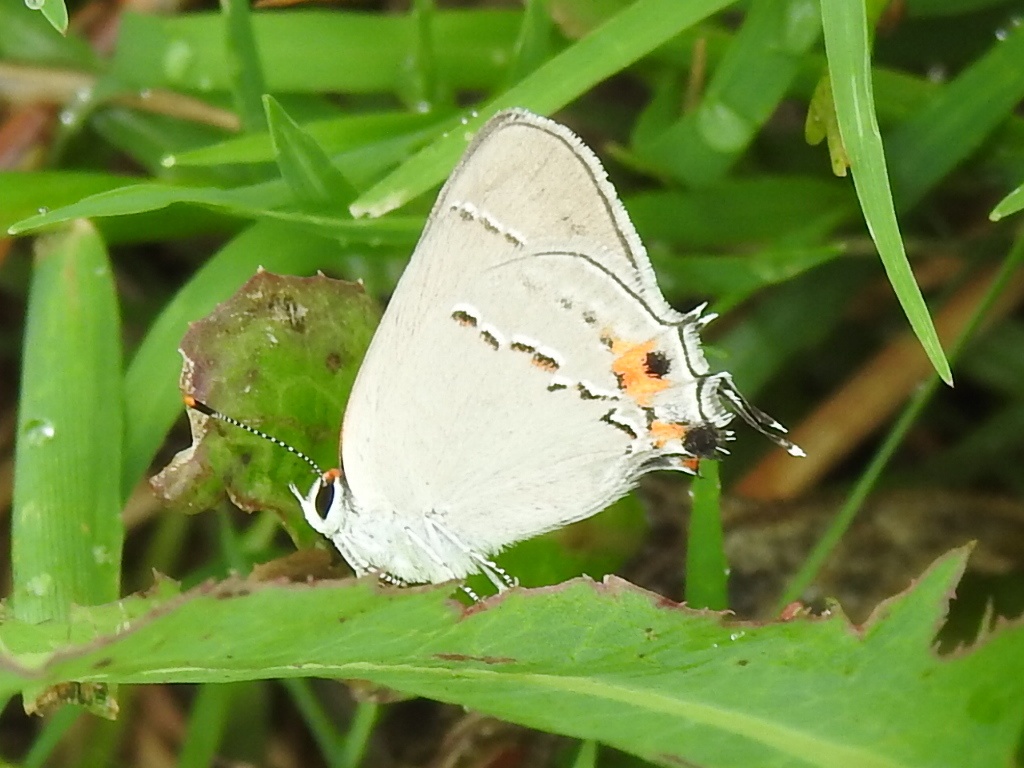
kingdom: Animalia
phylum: Arthropoda
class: Insecta
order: Lepidoptera
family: Lycaenidae
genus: Strymon
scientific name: Strymon melinus
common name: Gray hairstreak
